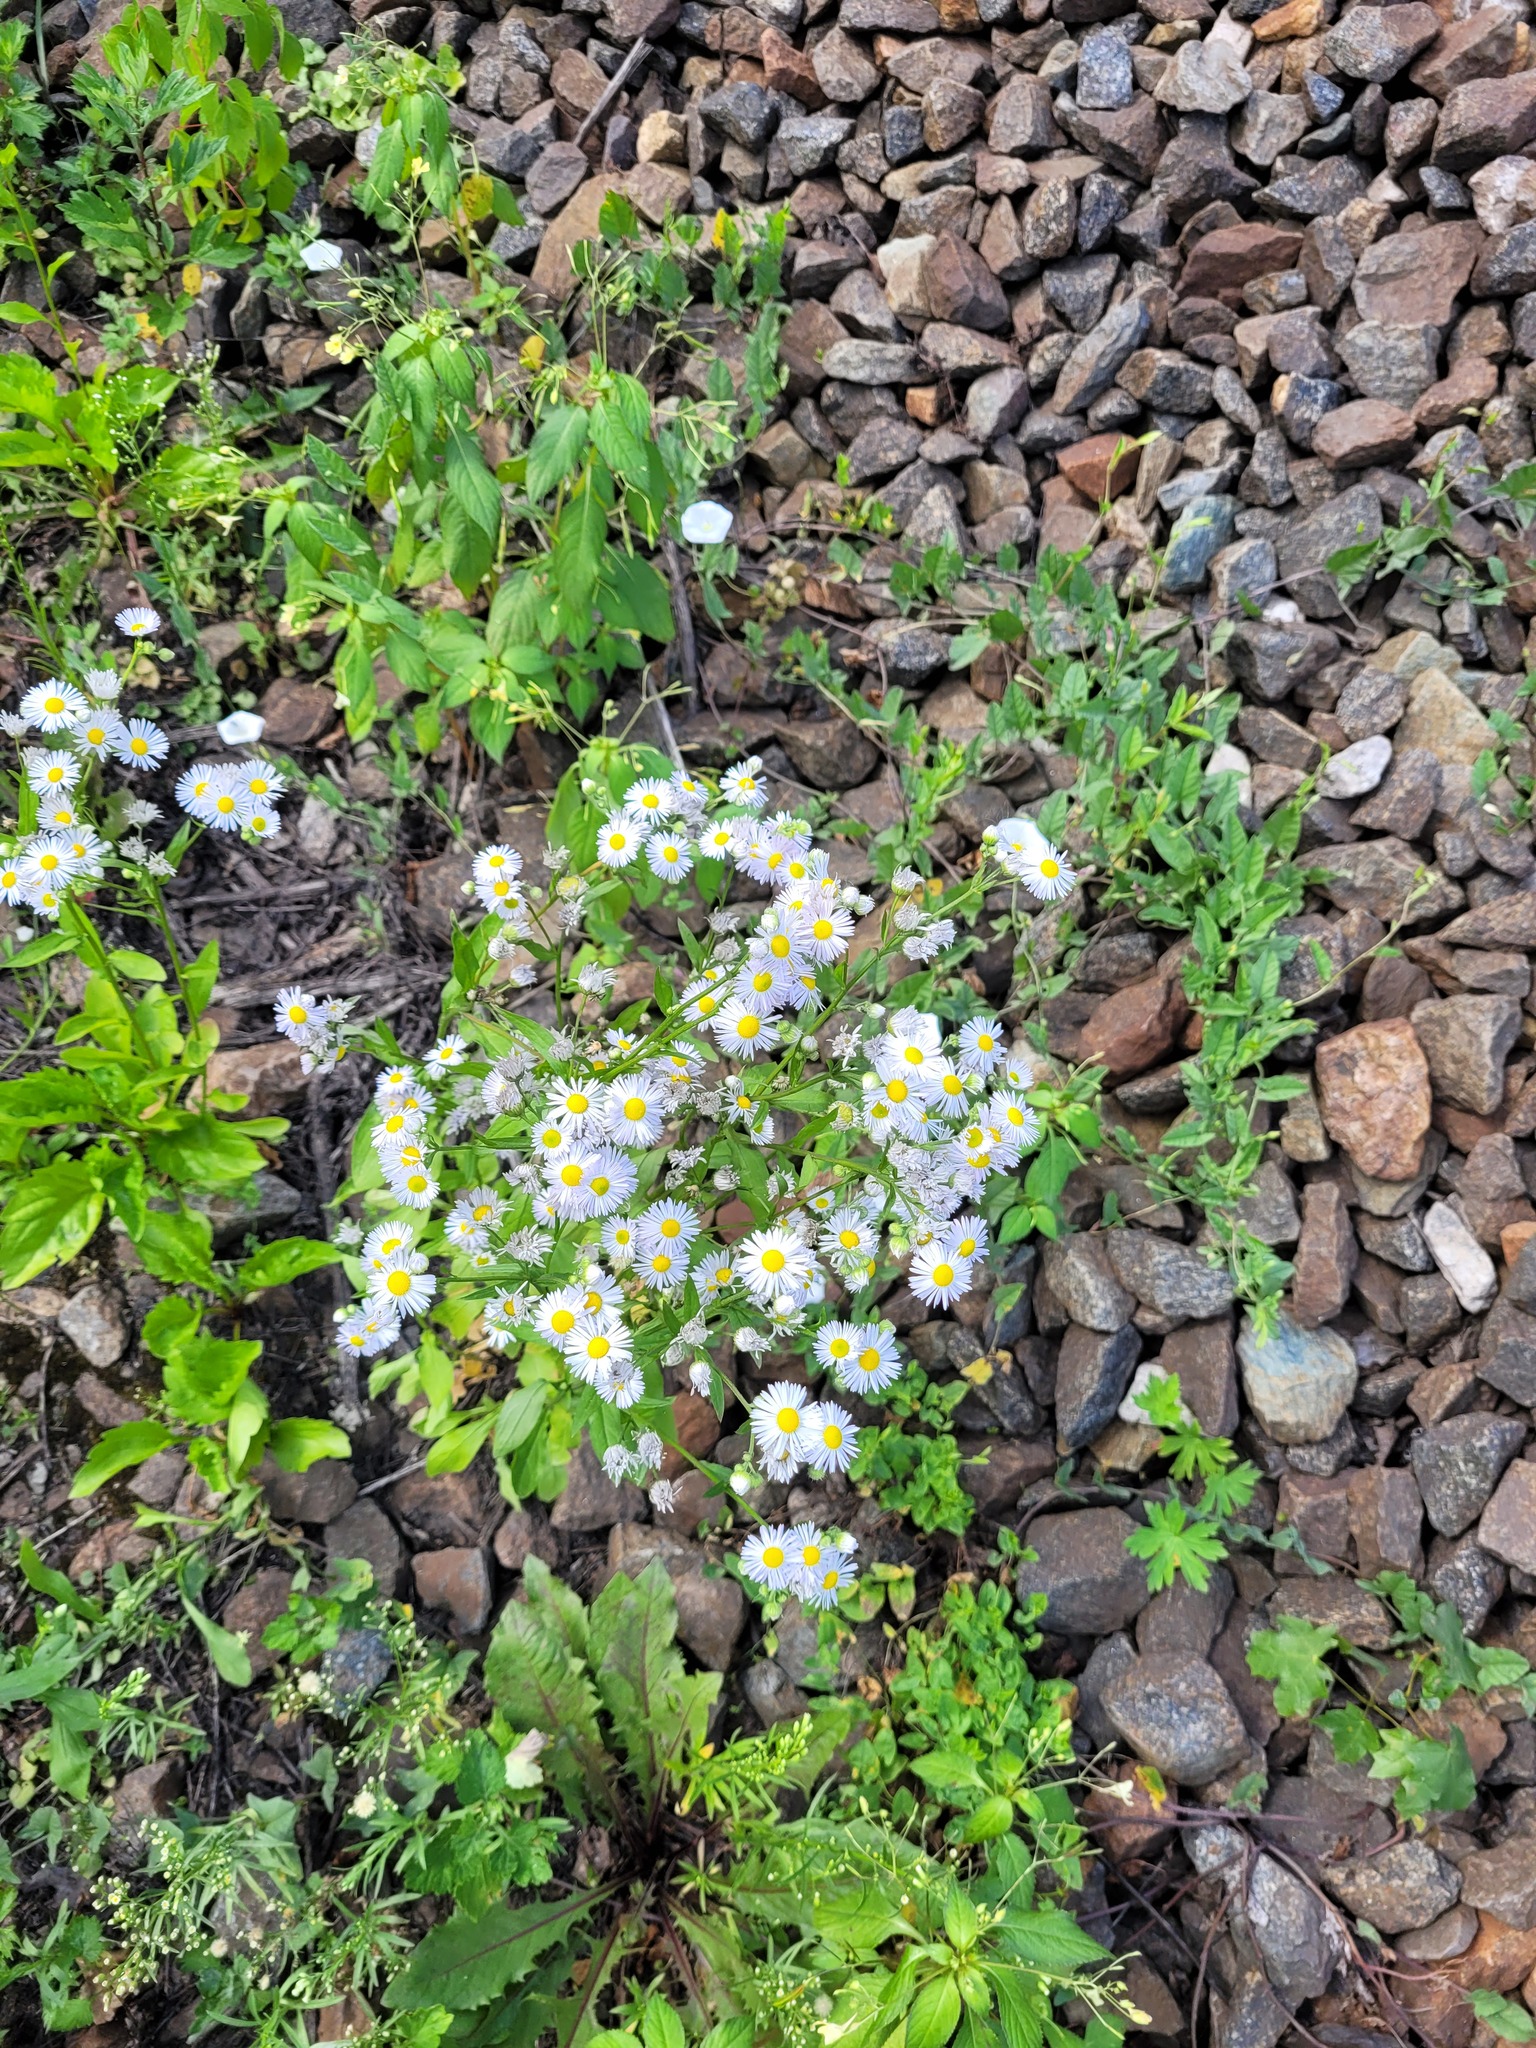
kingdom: Plantae
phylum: Tracheophyta
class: Magnoliopsida
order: Asterales
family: Asteraceae
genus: Erigeron
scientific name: Erigeron annuus
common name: Tall fleabane
